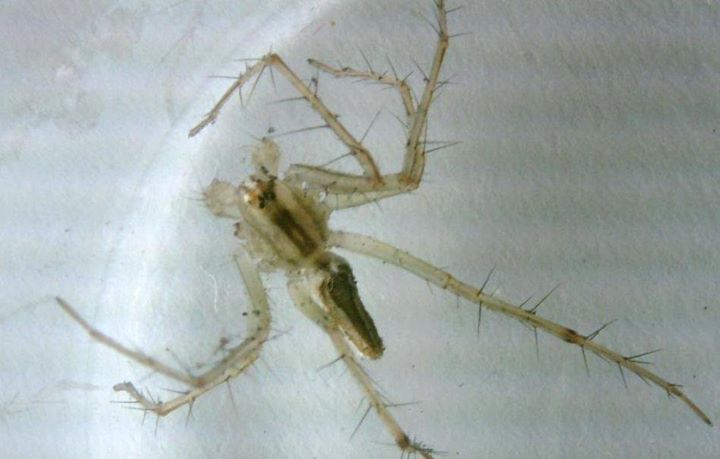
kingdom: Animalia
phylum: Arthropoda
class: Arachnida
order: Araneae
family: Oxyopidae
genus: Oxyopes
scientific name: Oxyopes macilentus
